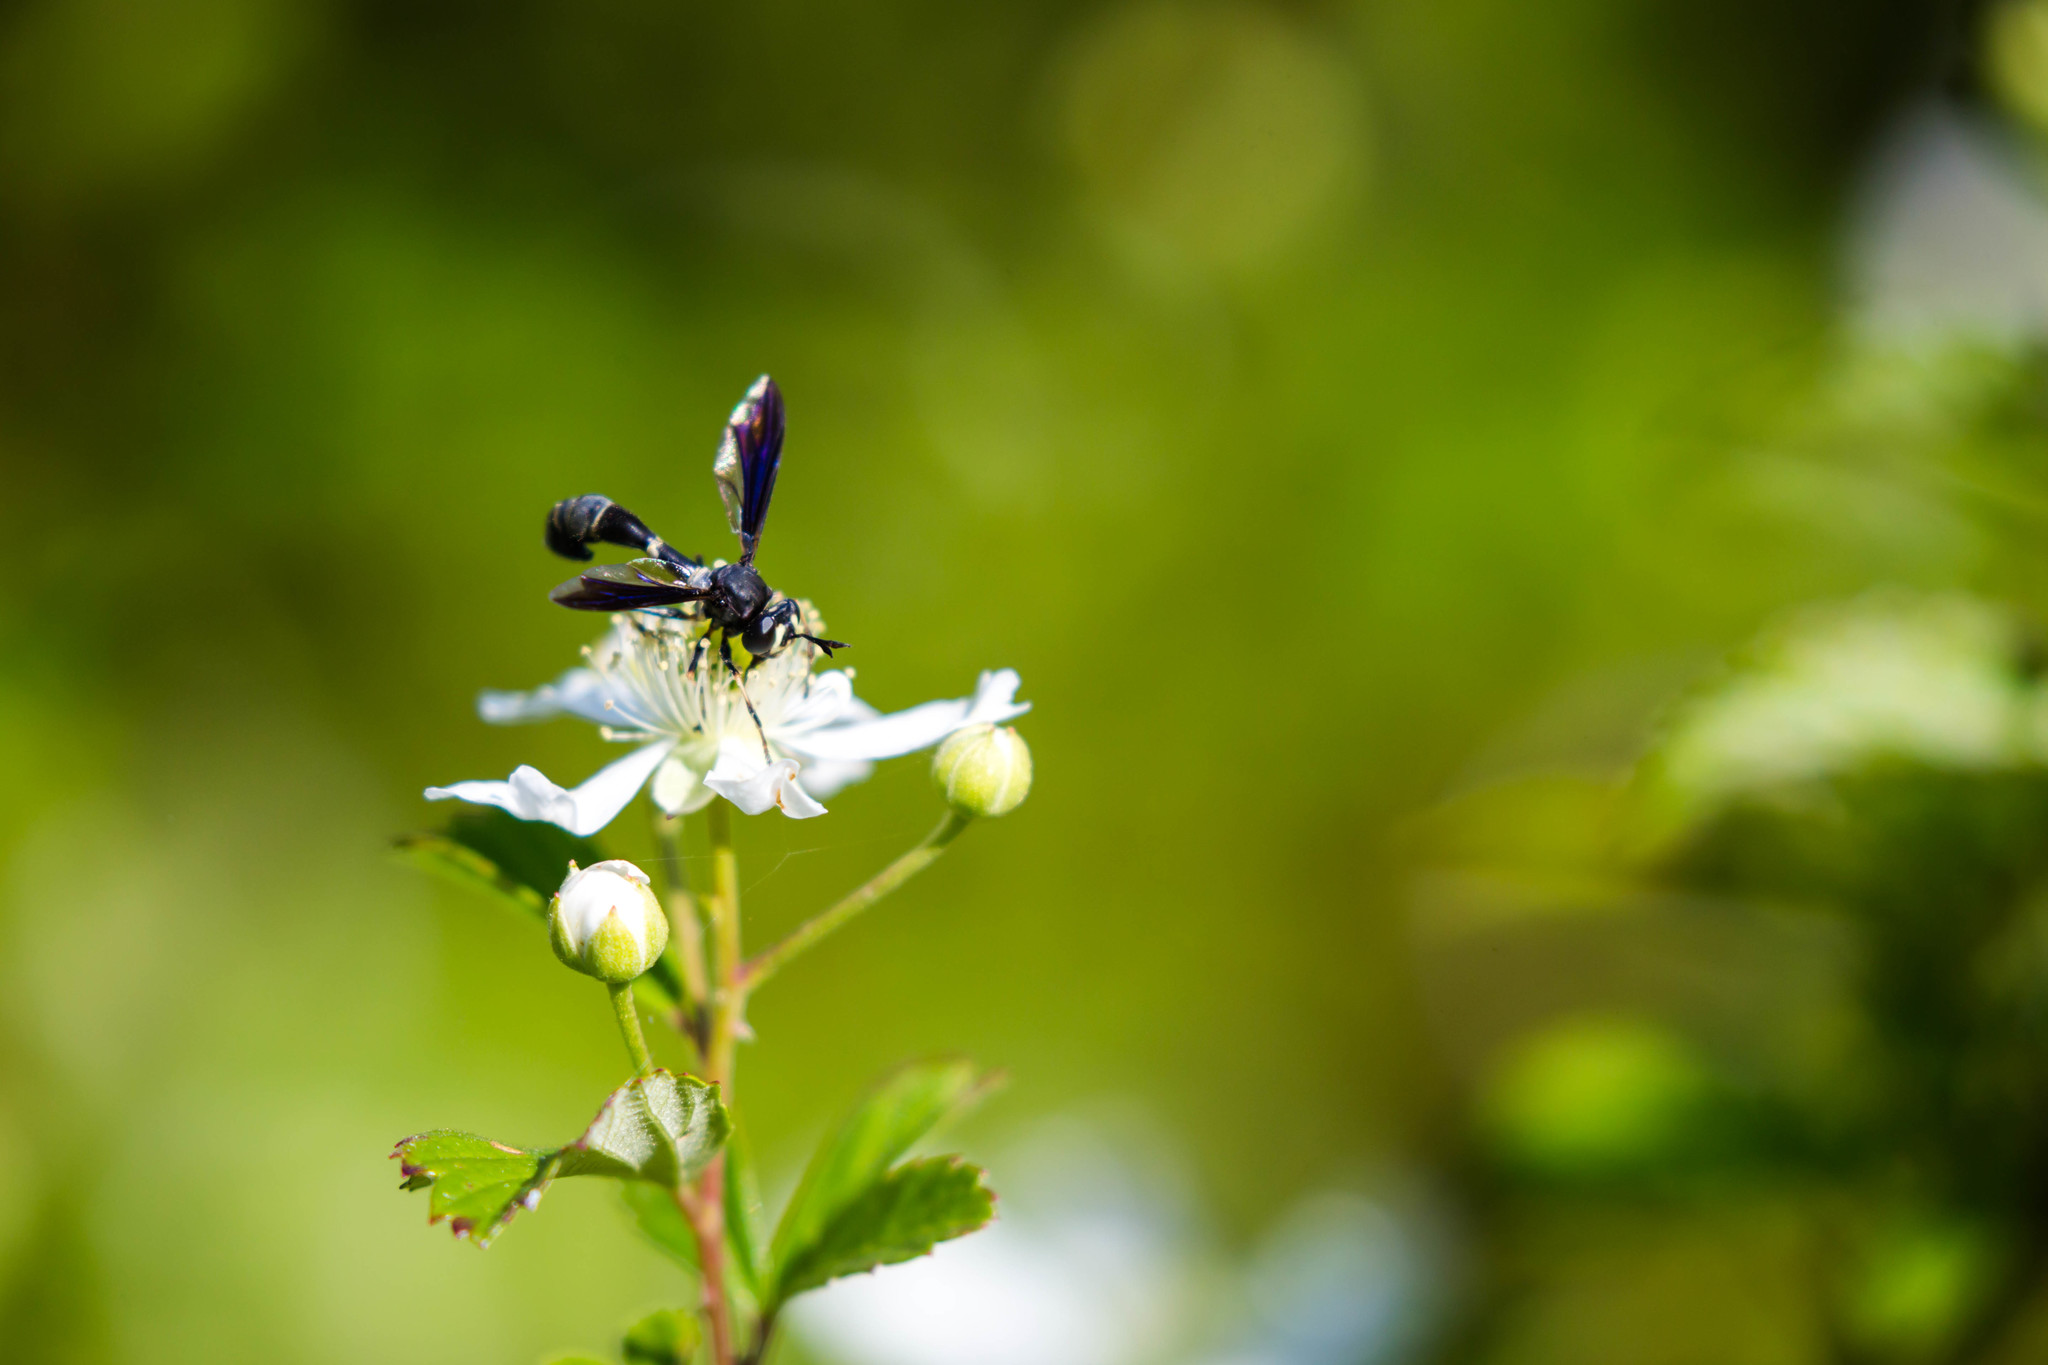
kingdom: Animalia
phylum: Arthropoda
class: Insecta
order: Diptera
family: Conopidae
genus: Physocephala
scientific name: Physocephala tibialis
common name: Common eastern physocephala
